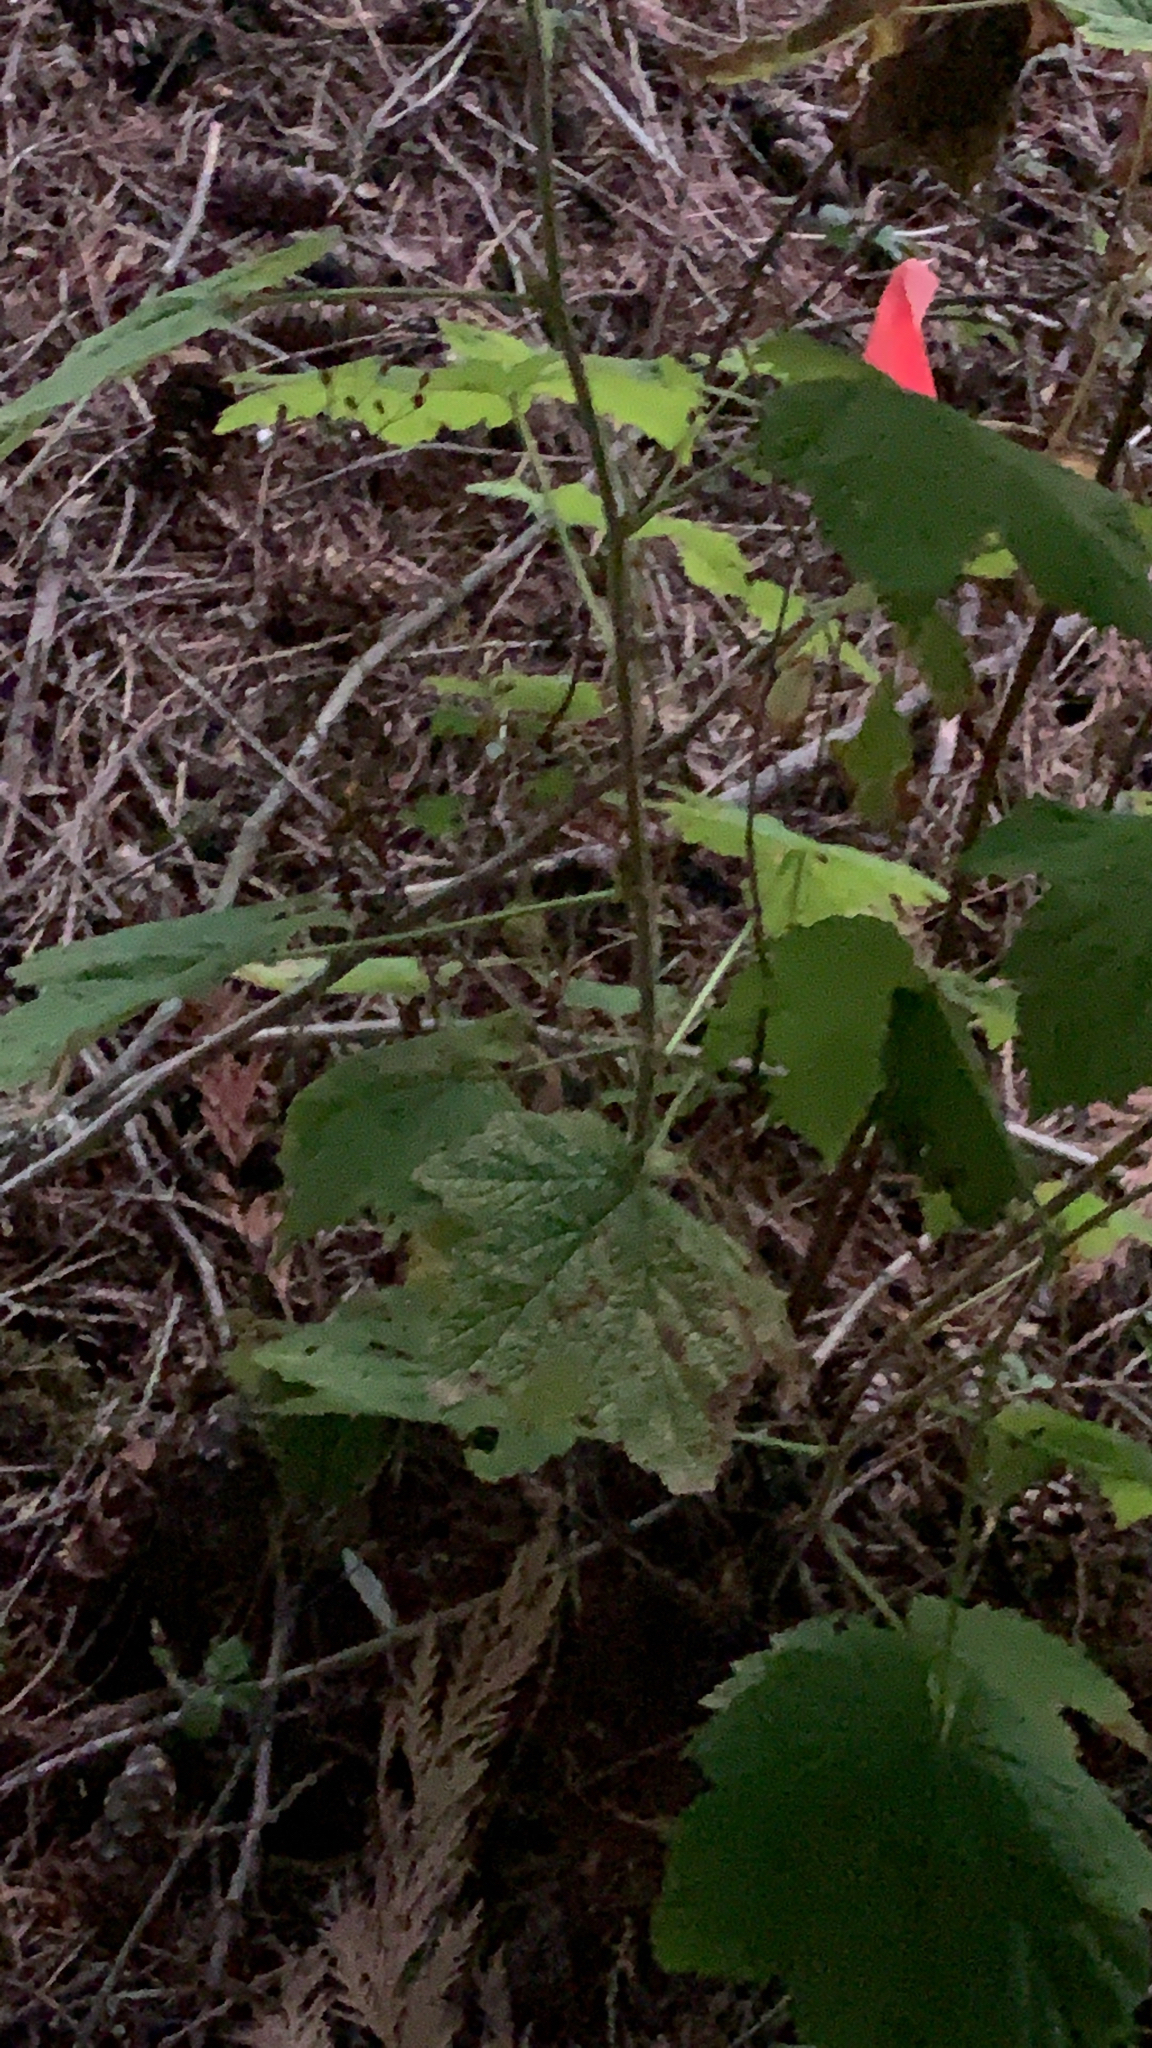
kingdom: Plantae
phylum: Tracheophyta
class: Magnoliopsida
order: Rosales
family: Rosaceae
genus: Rubus
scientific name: Rubus parviflorus
